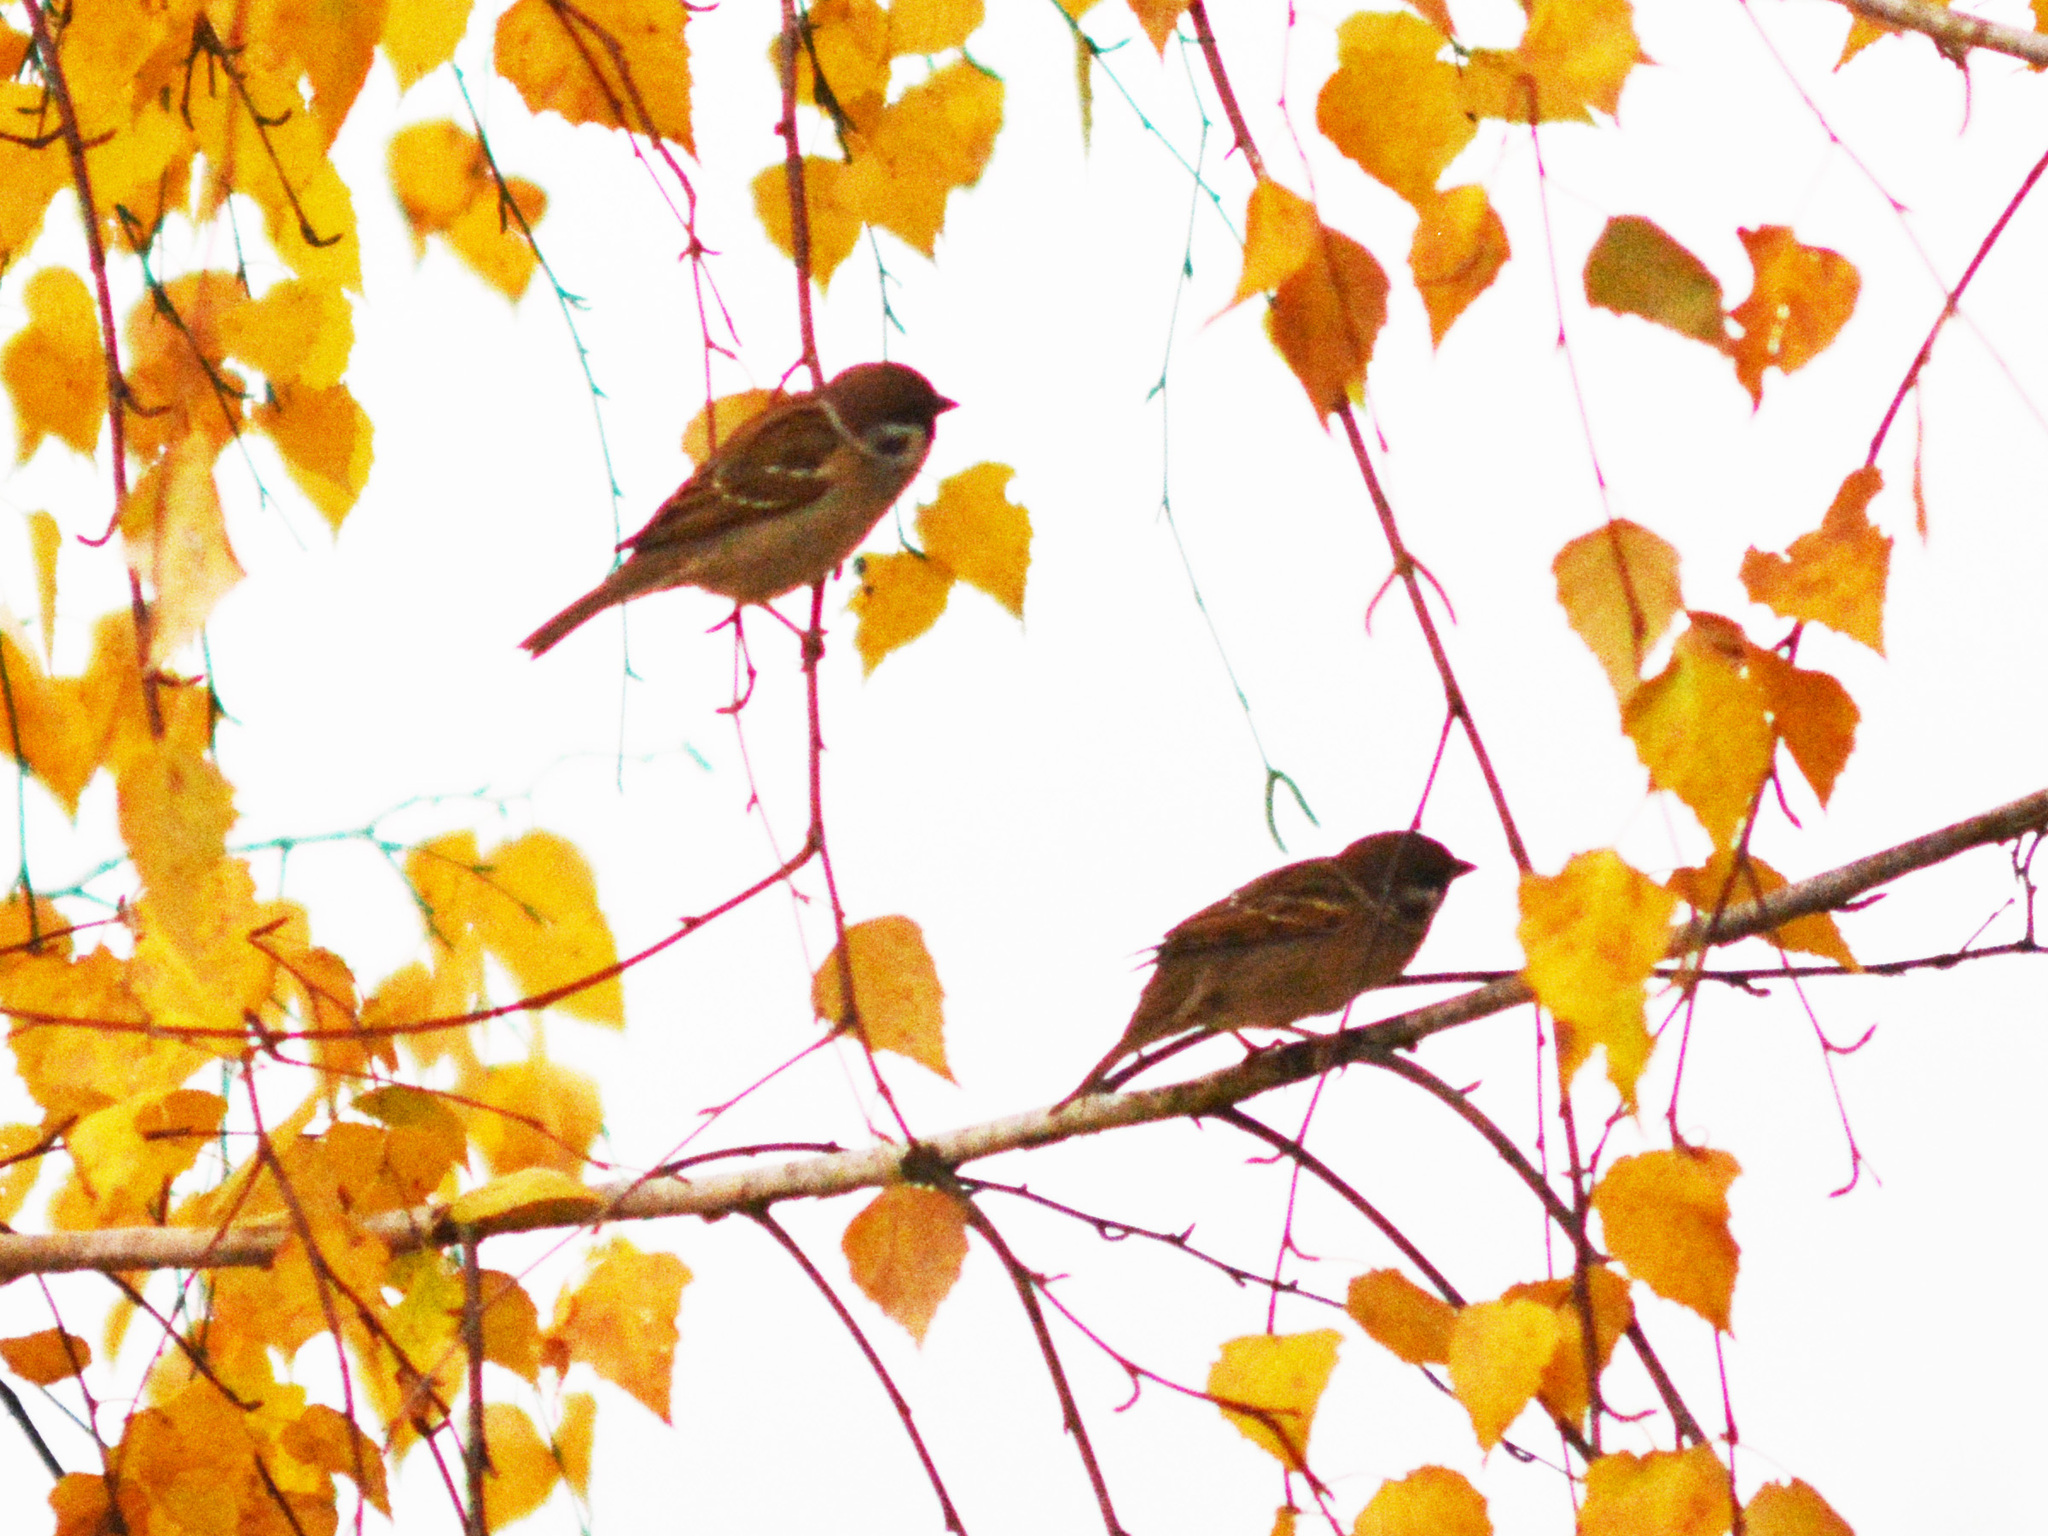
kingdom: Animalia
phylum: Chordata
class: Aves
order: Passeriformes
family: Passeridae
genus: Passer
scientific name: Passer montanus
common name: Eurasian tree sparrow
